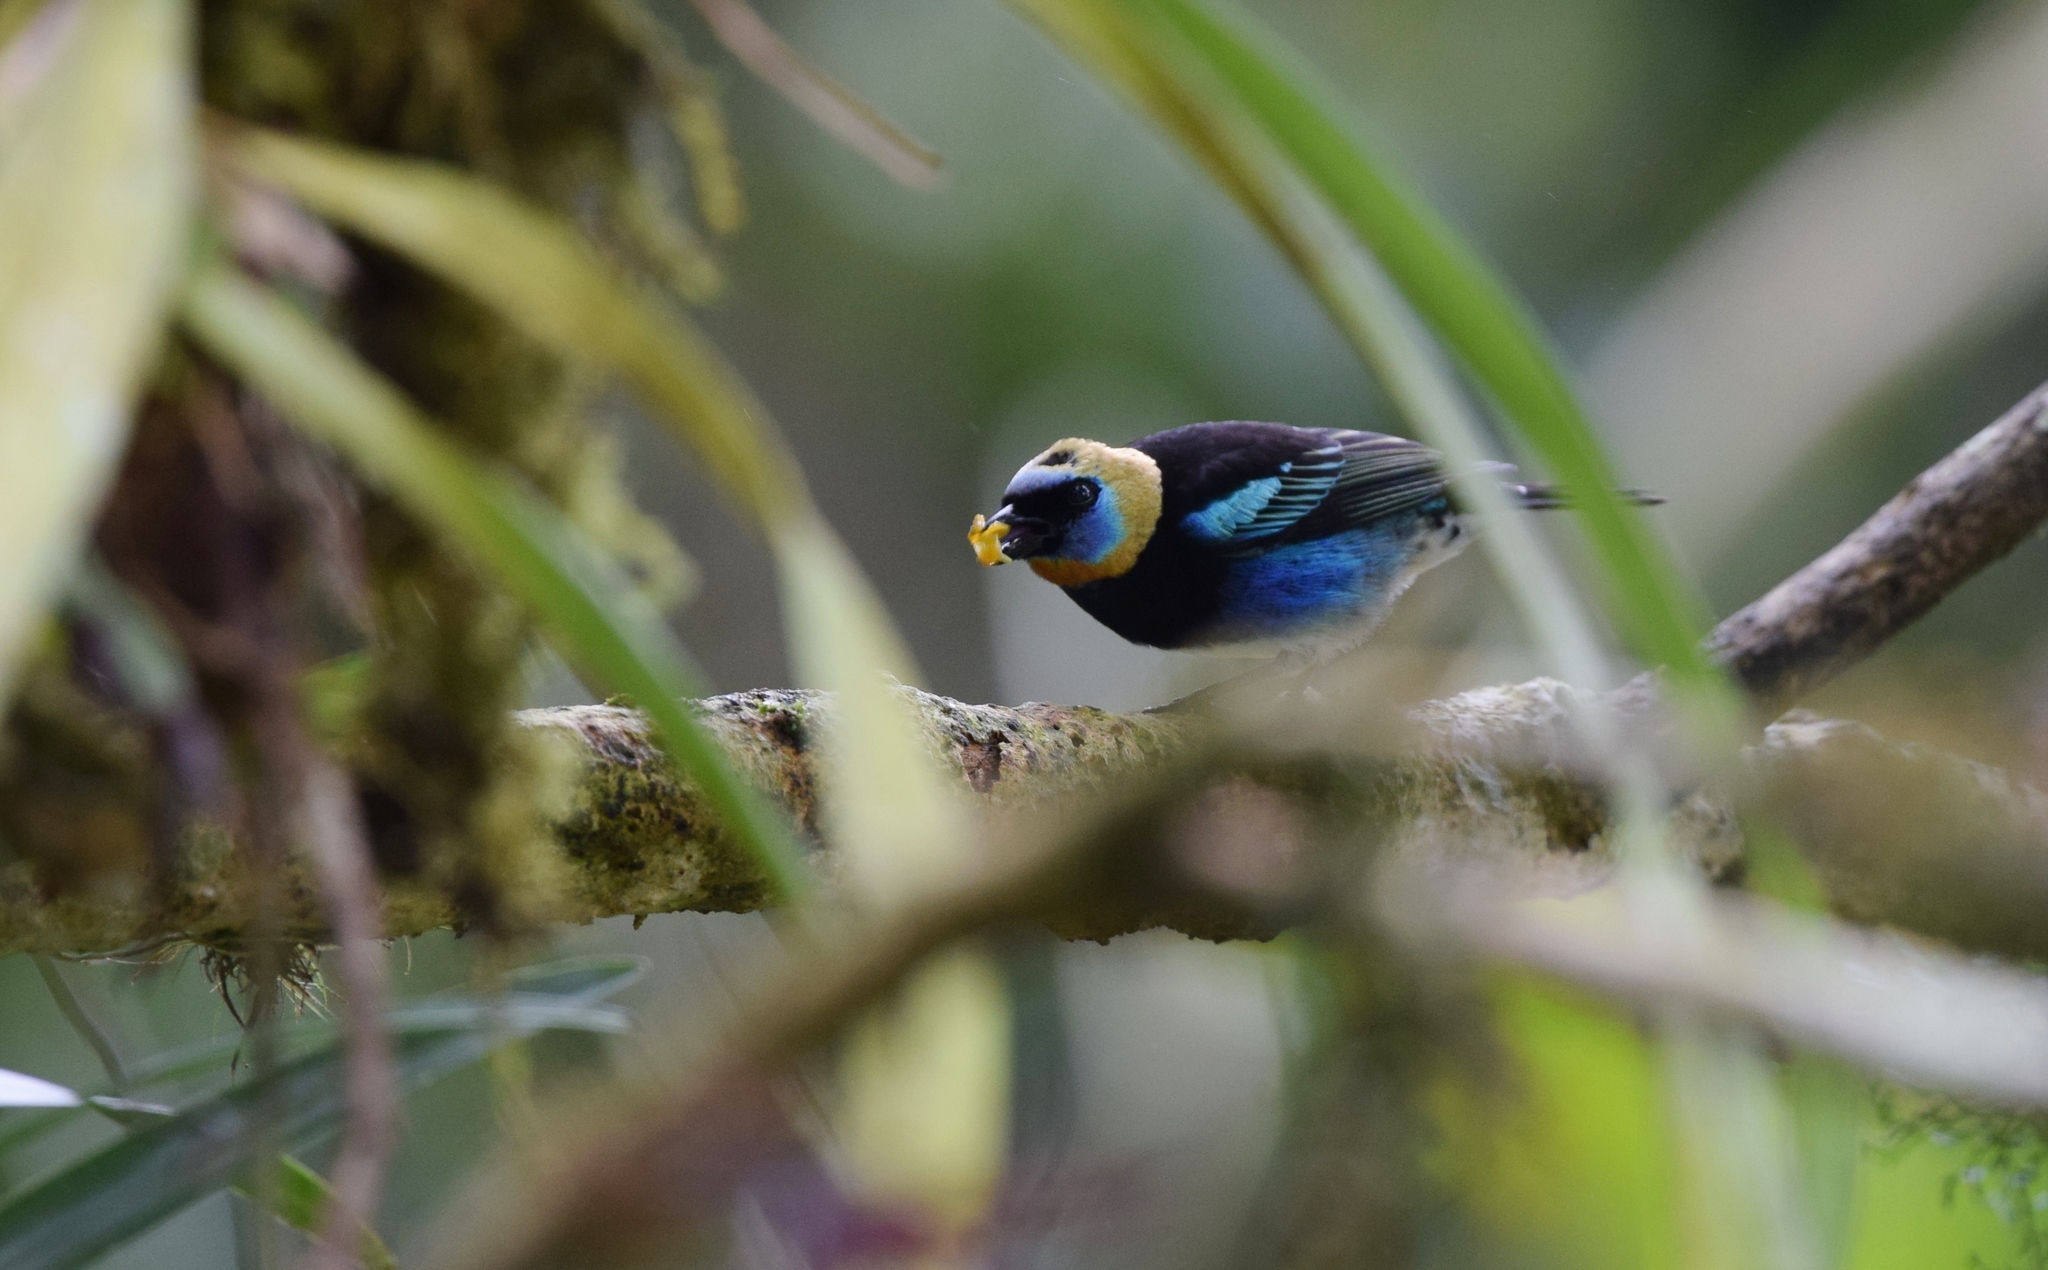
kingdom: Animalia
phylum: Chordata
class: Aves
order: Passeriformes
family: Thraupidae
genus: Stilpnia
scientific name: Stilpnia larvata
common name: Golden-hooded tanager
